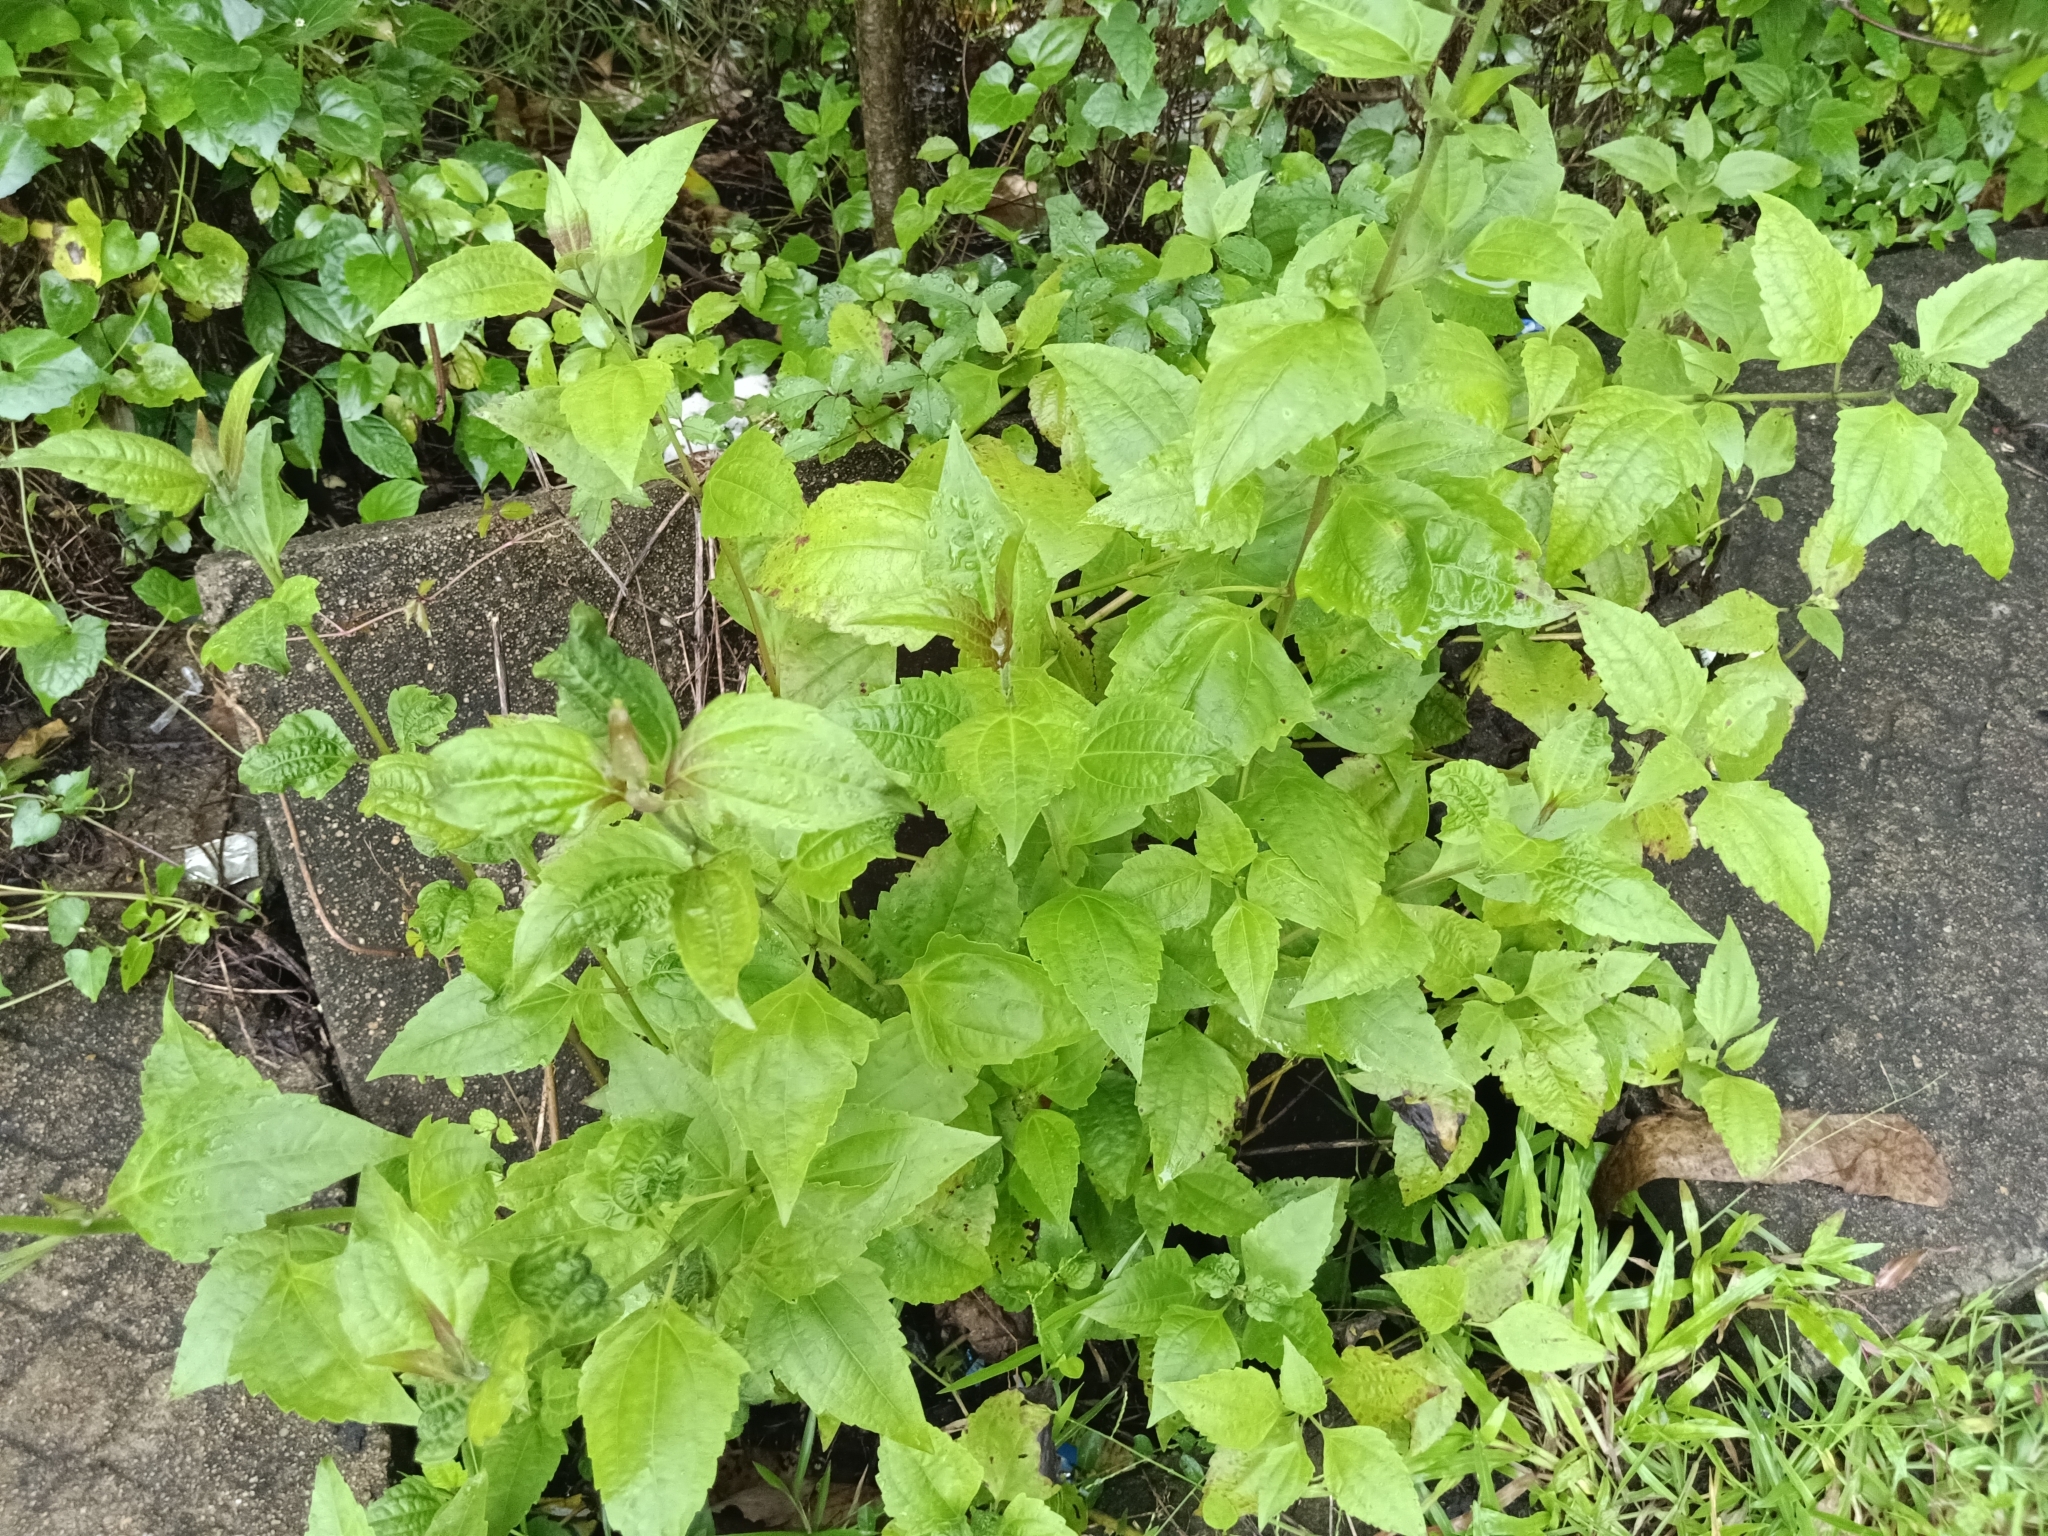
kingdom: Plantae
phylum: Tracheophyta
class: Magnoliopsida
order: Asterales
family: Asteraceae
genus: Chromolaena
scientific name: Chromolaena odorata
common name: Siamweed
